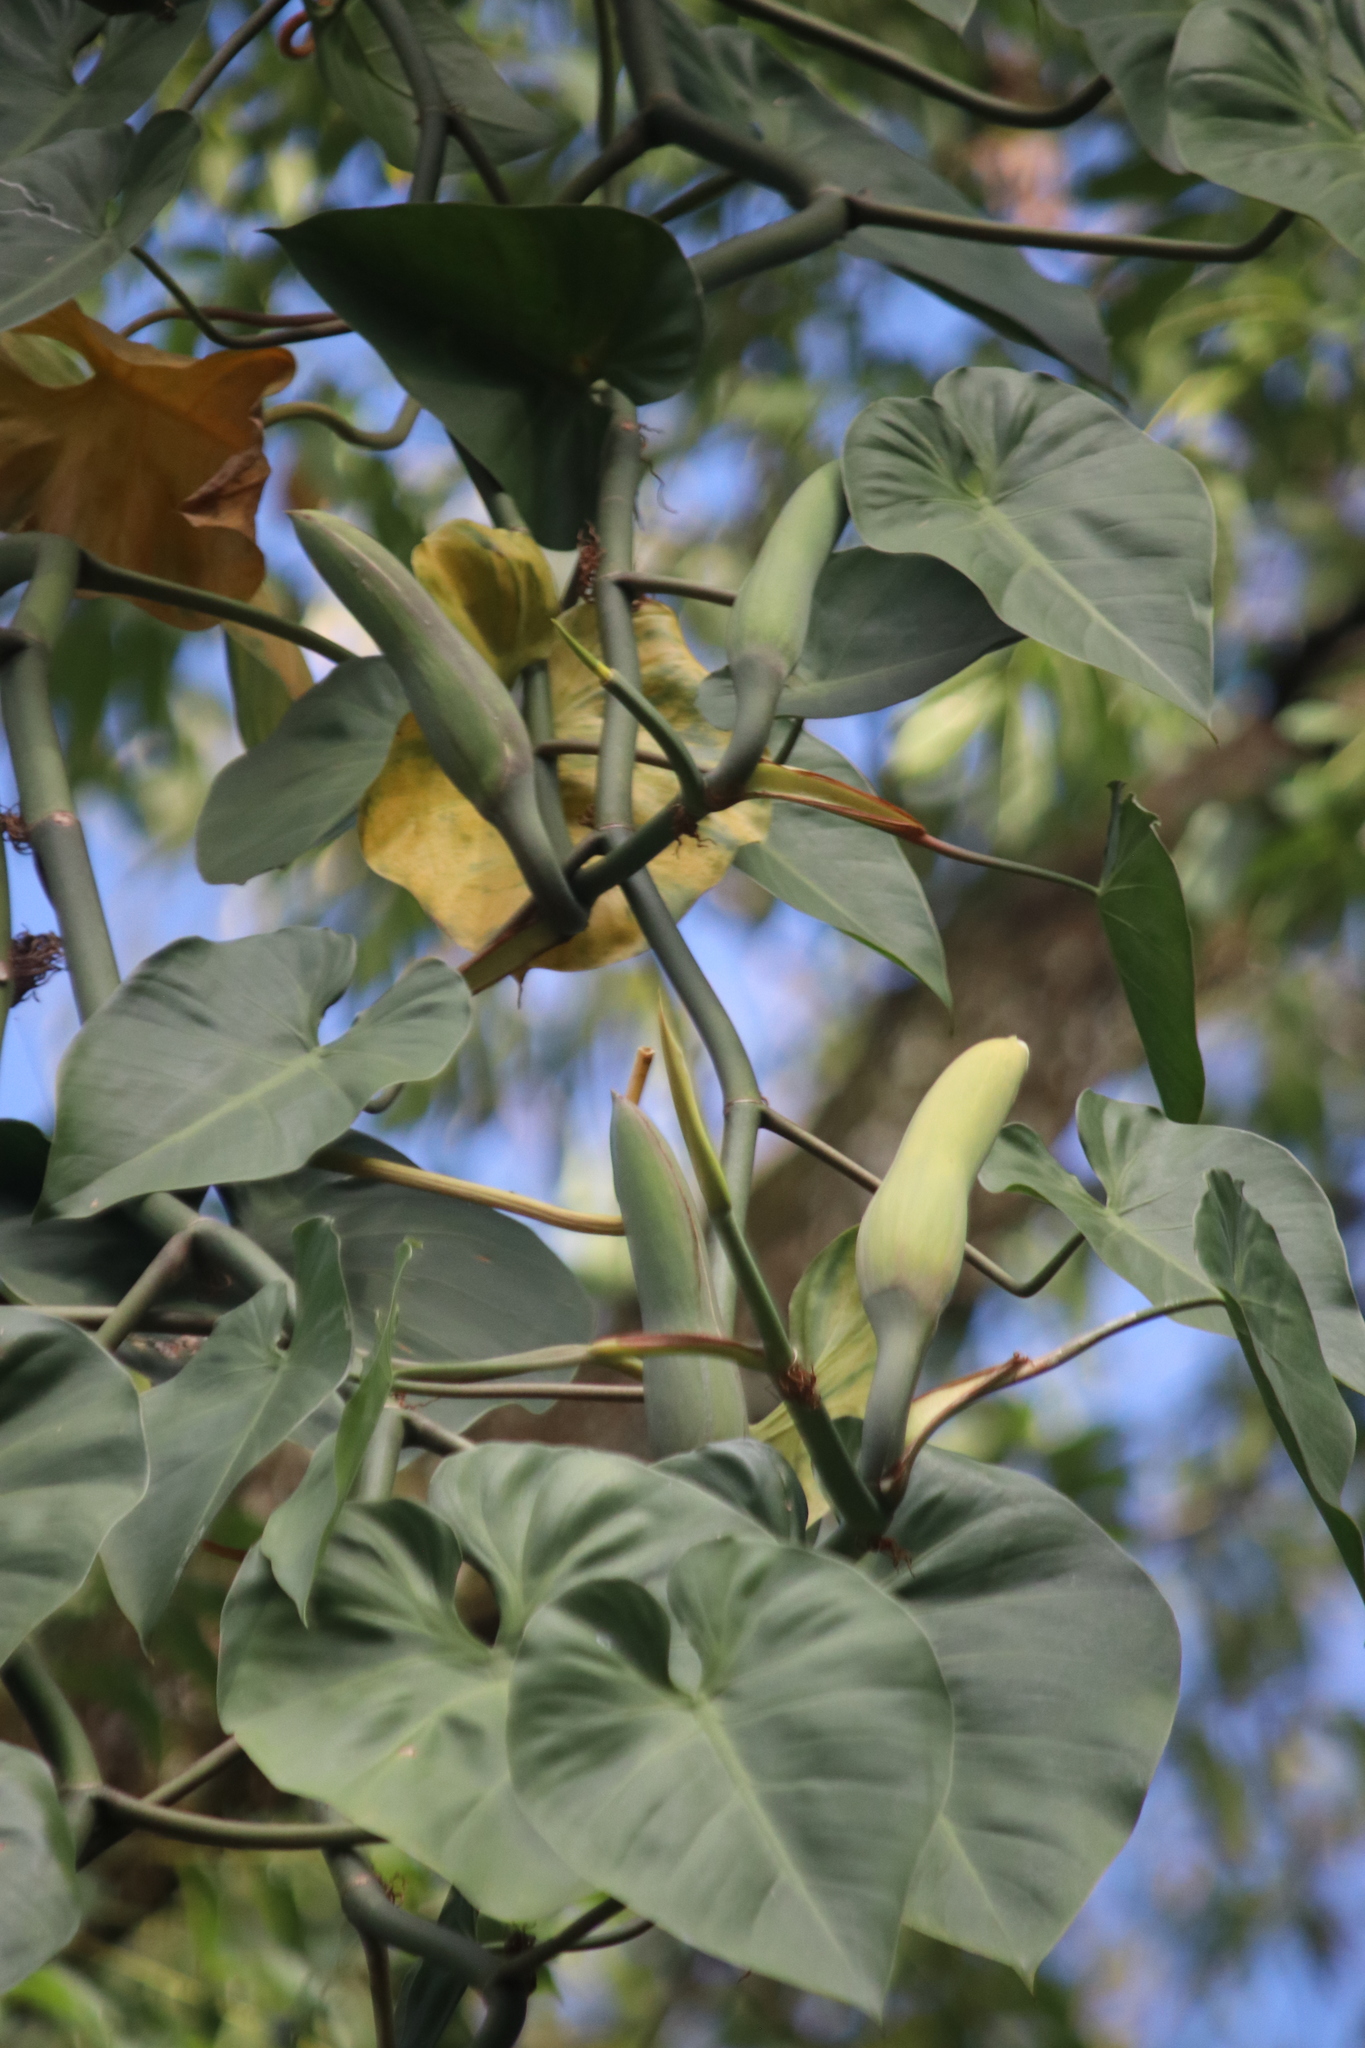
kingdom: Plantae
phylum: Tracheophyta
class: Liliopsida
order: Alismatales
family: Araceae
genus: Philodendron
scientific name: Philodendron hederaceum
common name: Vilevine
